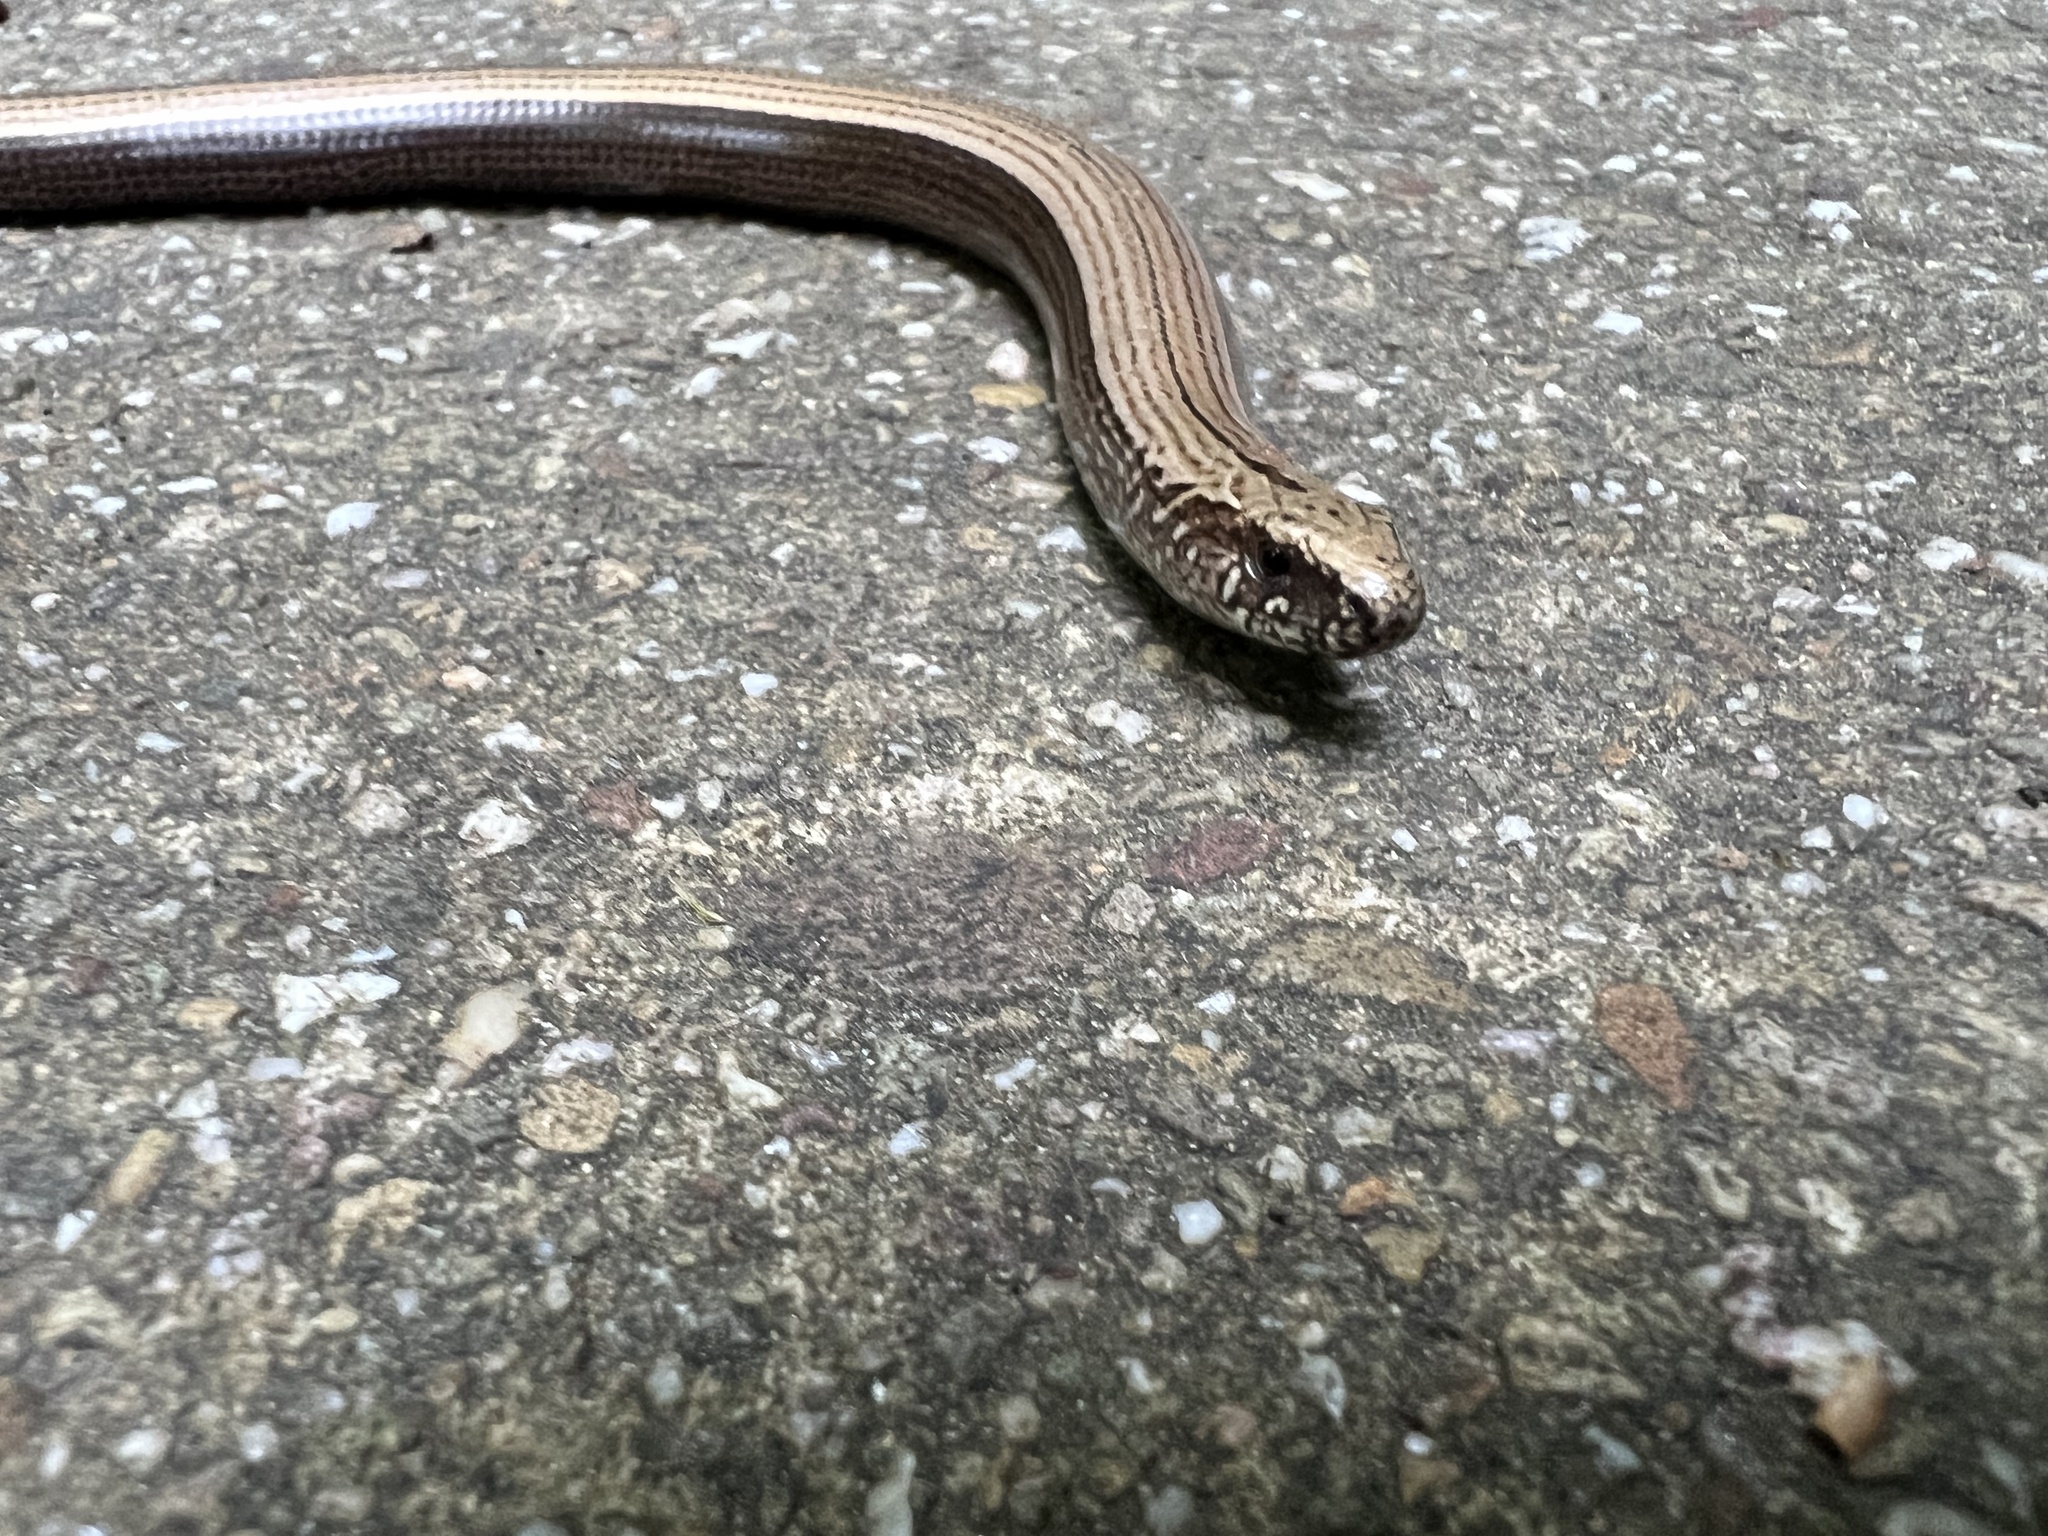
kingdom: Animalia
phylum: Chordata
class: Squamata
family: Anguidae
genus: Anguis
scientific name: Anguis fragilis
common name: Slow worm
